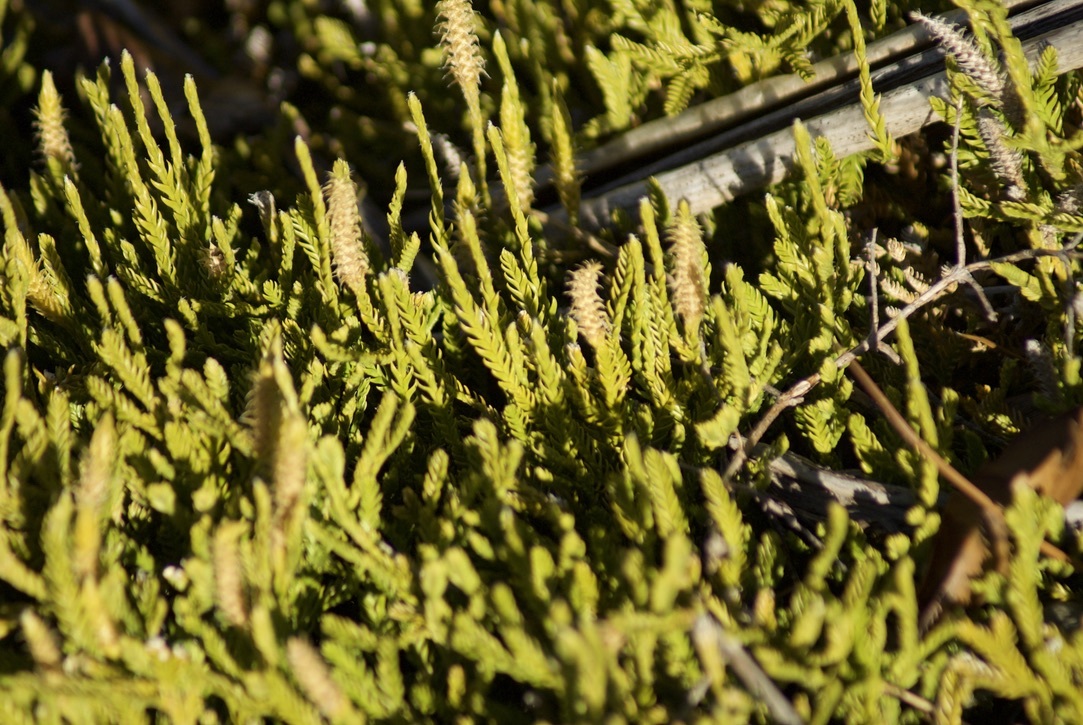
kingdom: Plantae
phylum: Tracheophyta
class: Lycopodiopsida
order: Lycopodiales
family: Lycopodiaceae
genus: Diphasium
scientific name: Diphasium scariosum
